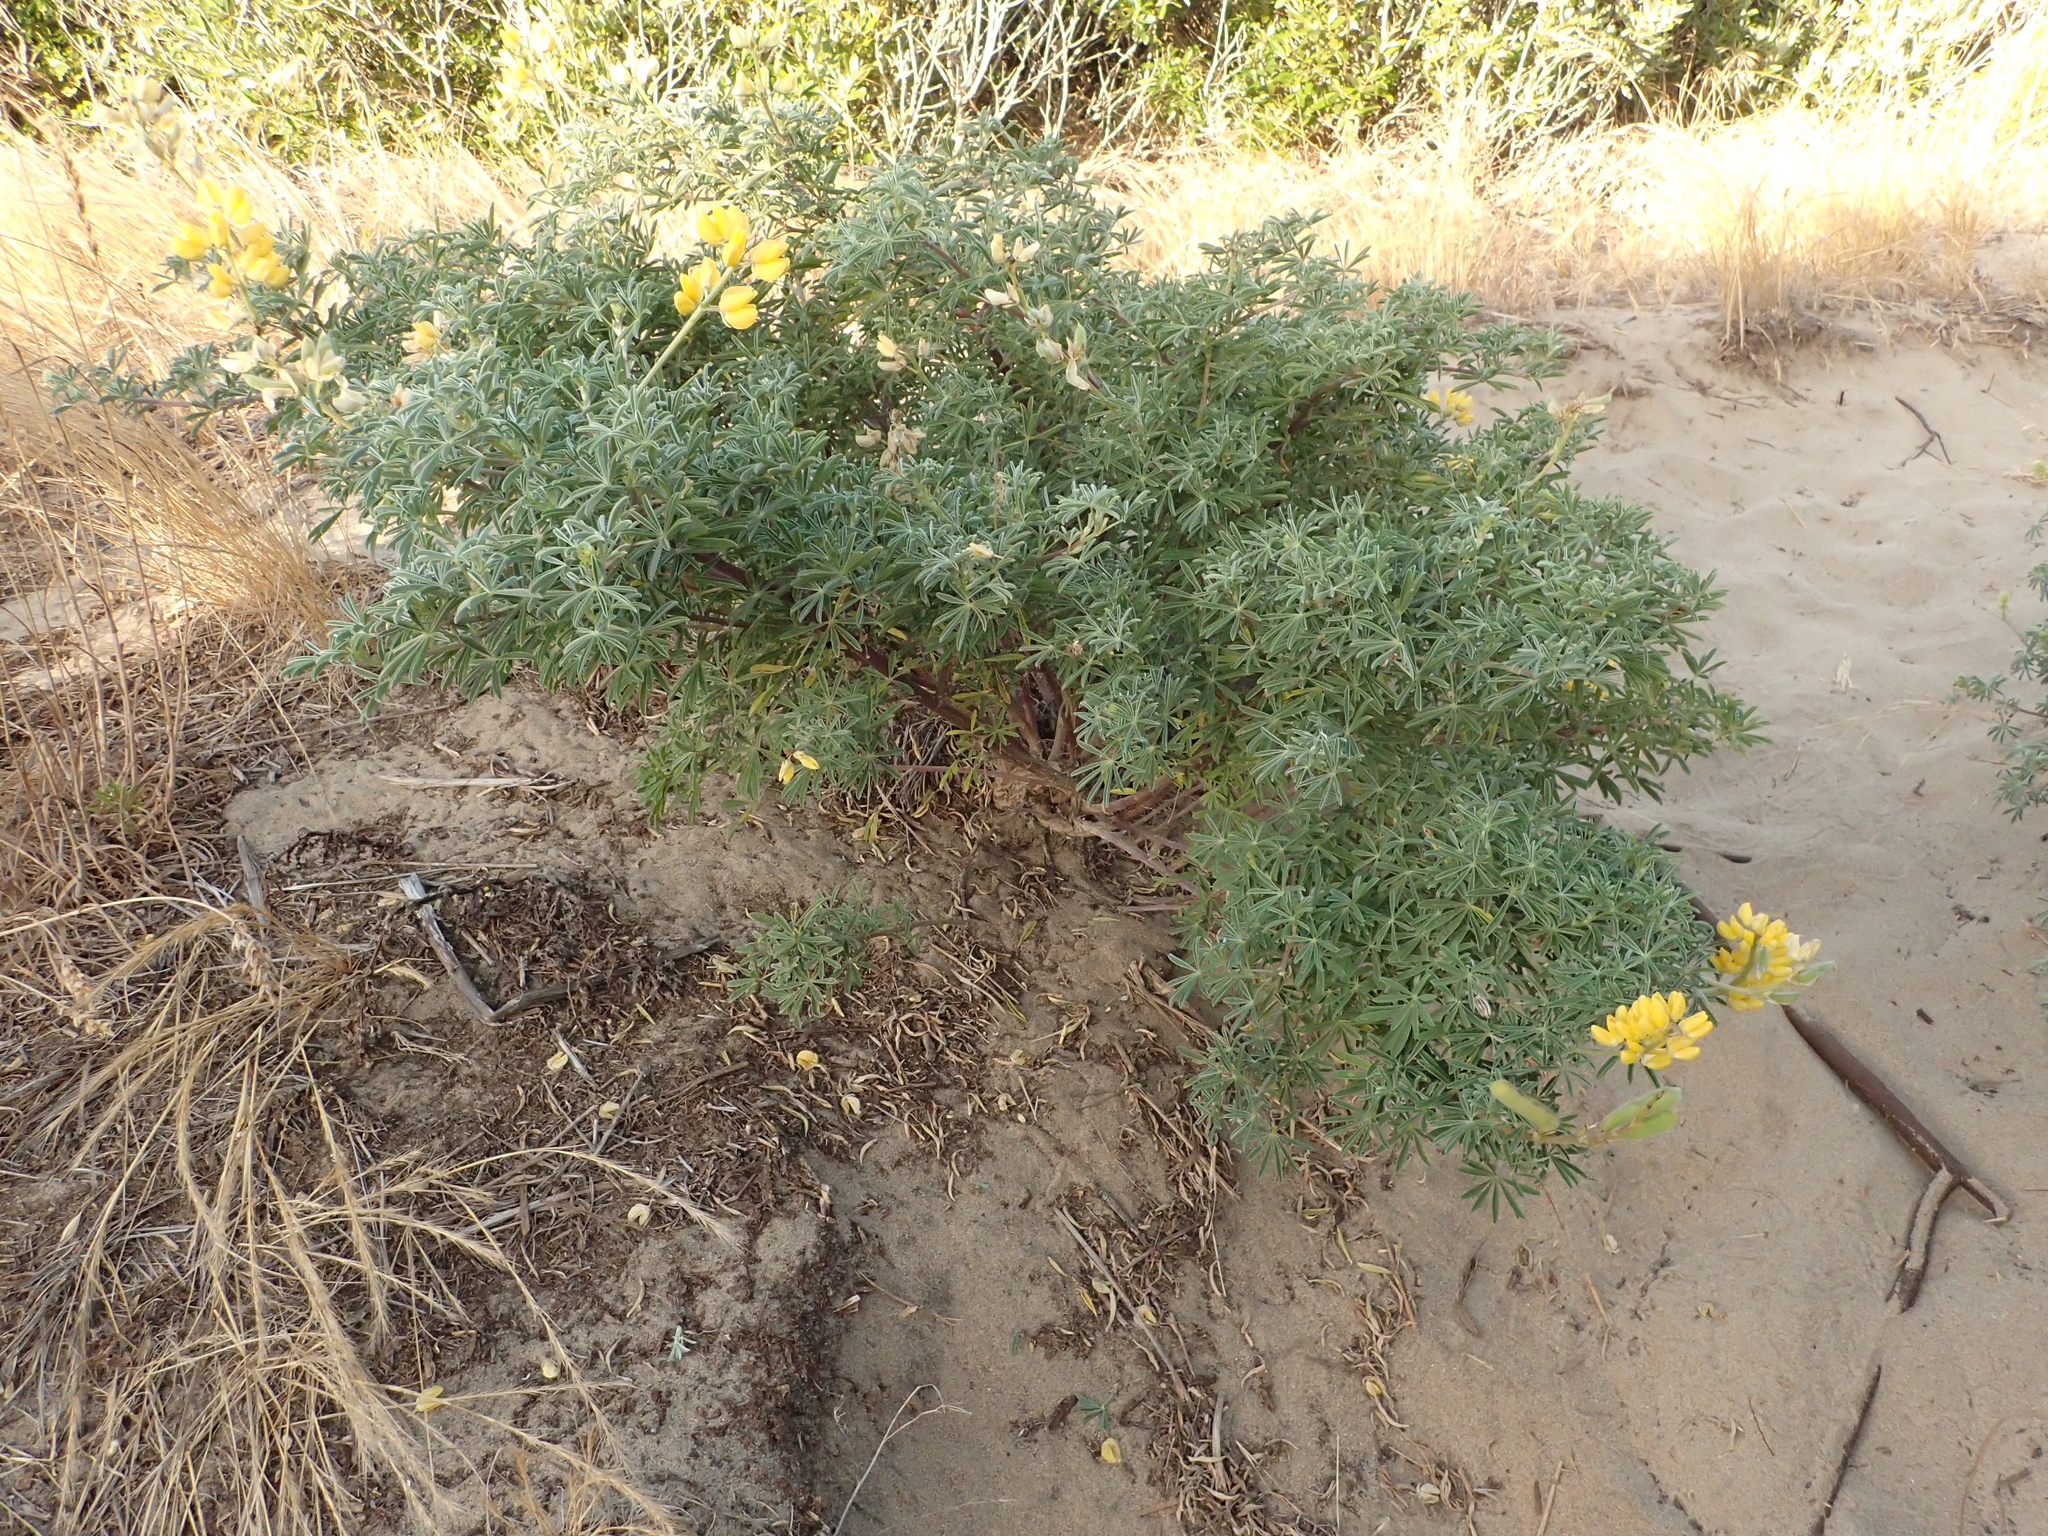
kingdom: Plantae
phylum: Tracheophyta
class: Magnoliopsida
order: Fabales
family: Fabaceae
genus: Lupinus
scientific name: Lupinus arboreus
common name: Yellow bush lupine
